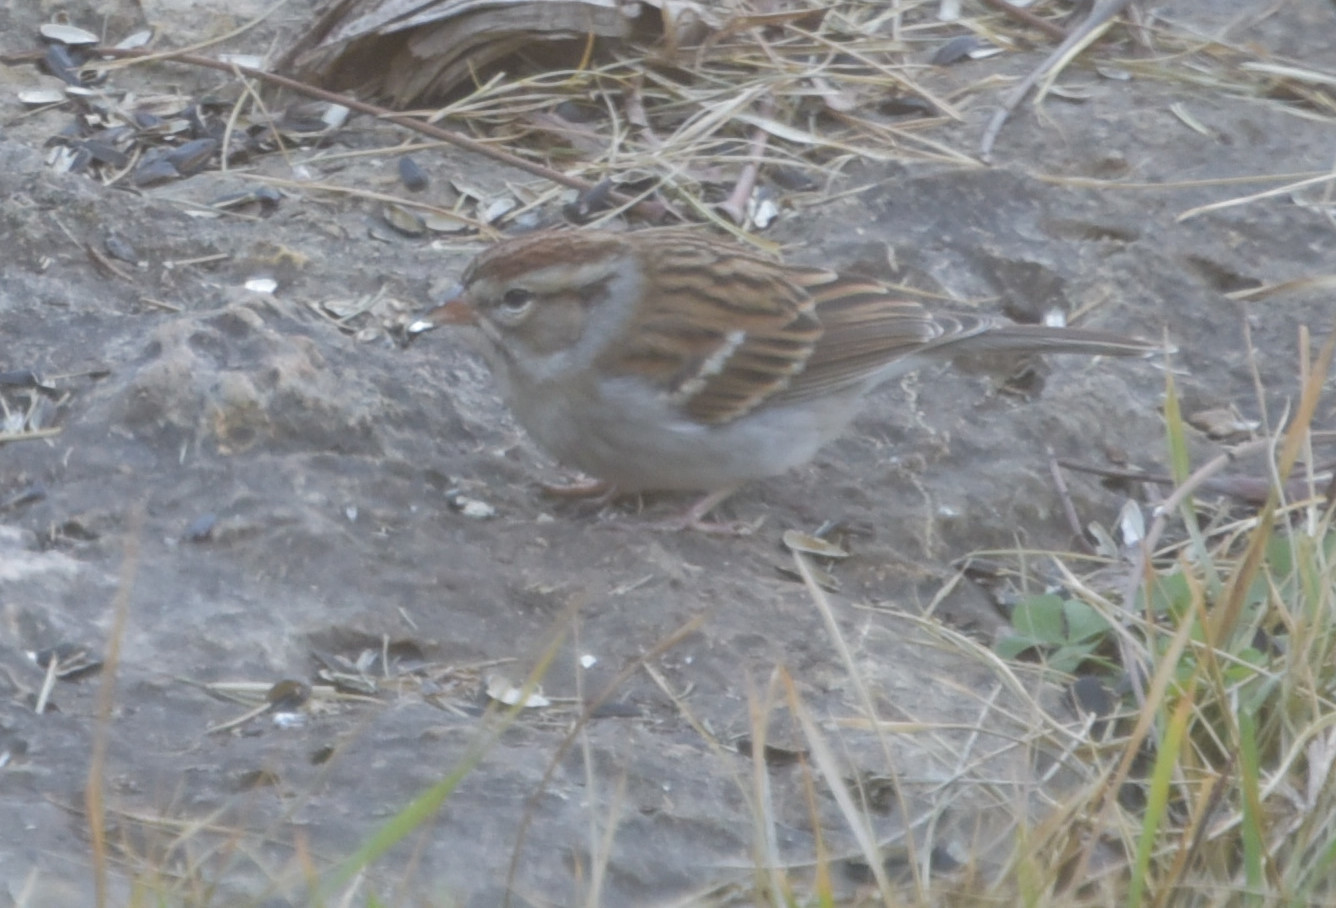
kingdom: Animalia
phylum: Chordata
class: Aves
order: Passeriformes
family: Passerellidae
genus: Spizella
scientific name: Spizella passerina
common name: Chipping sparrow
